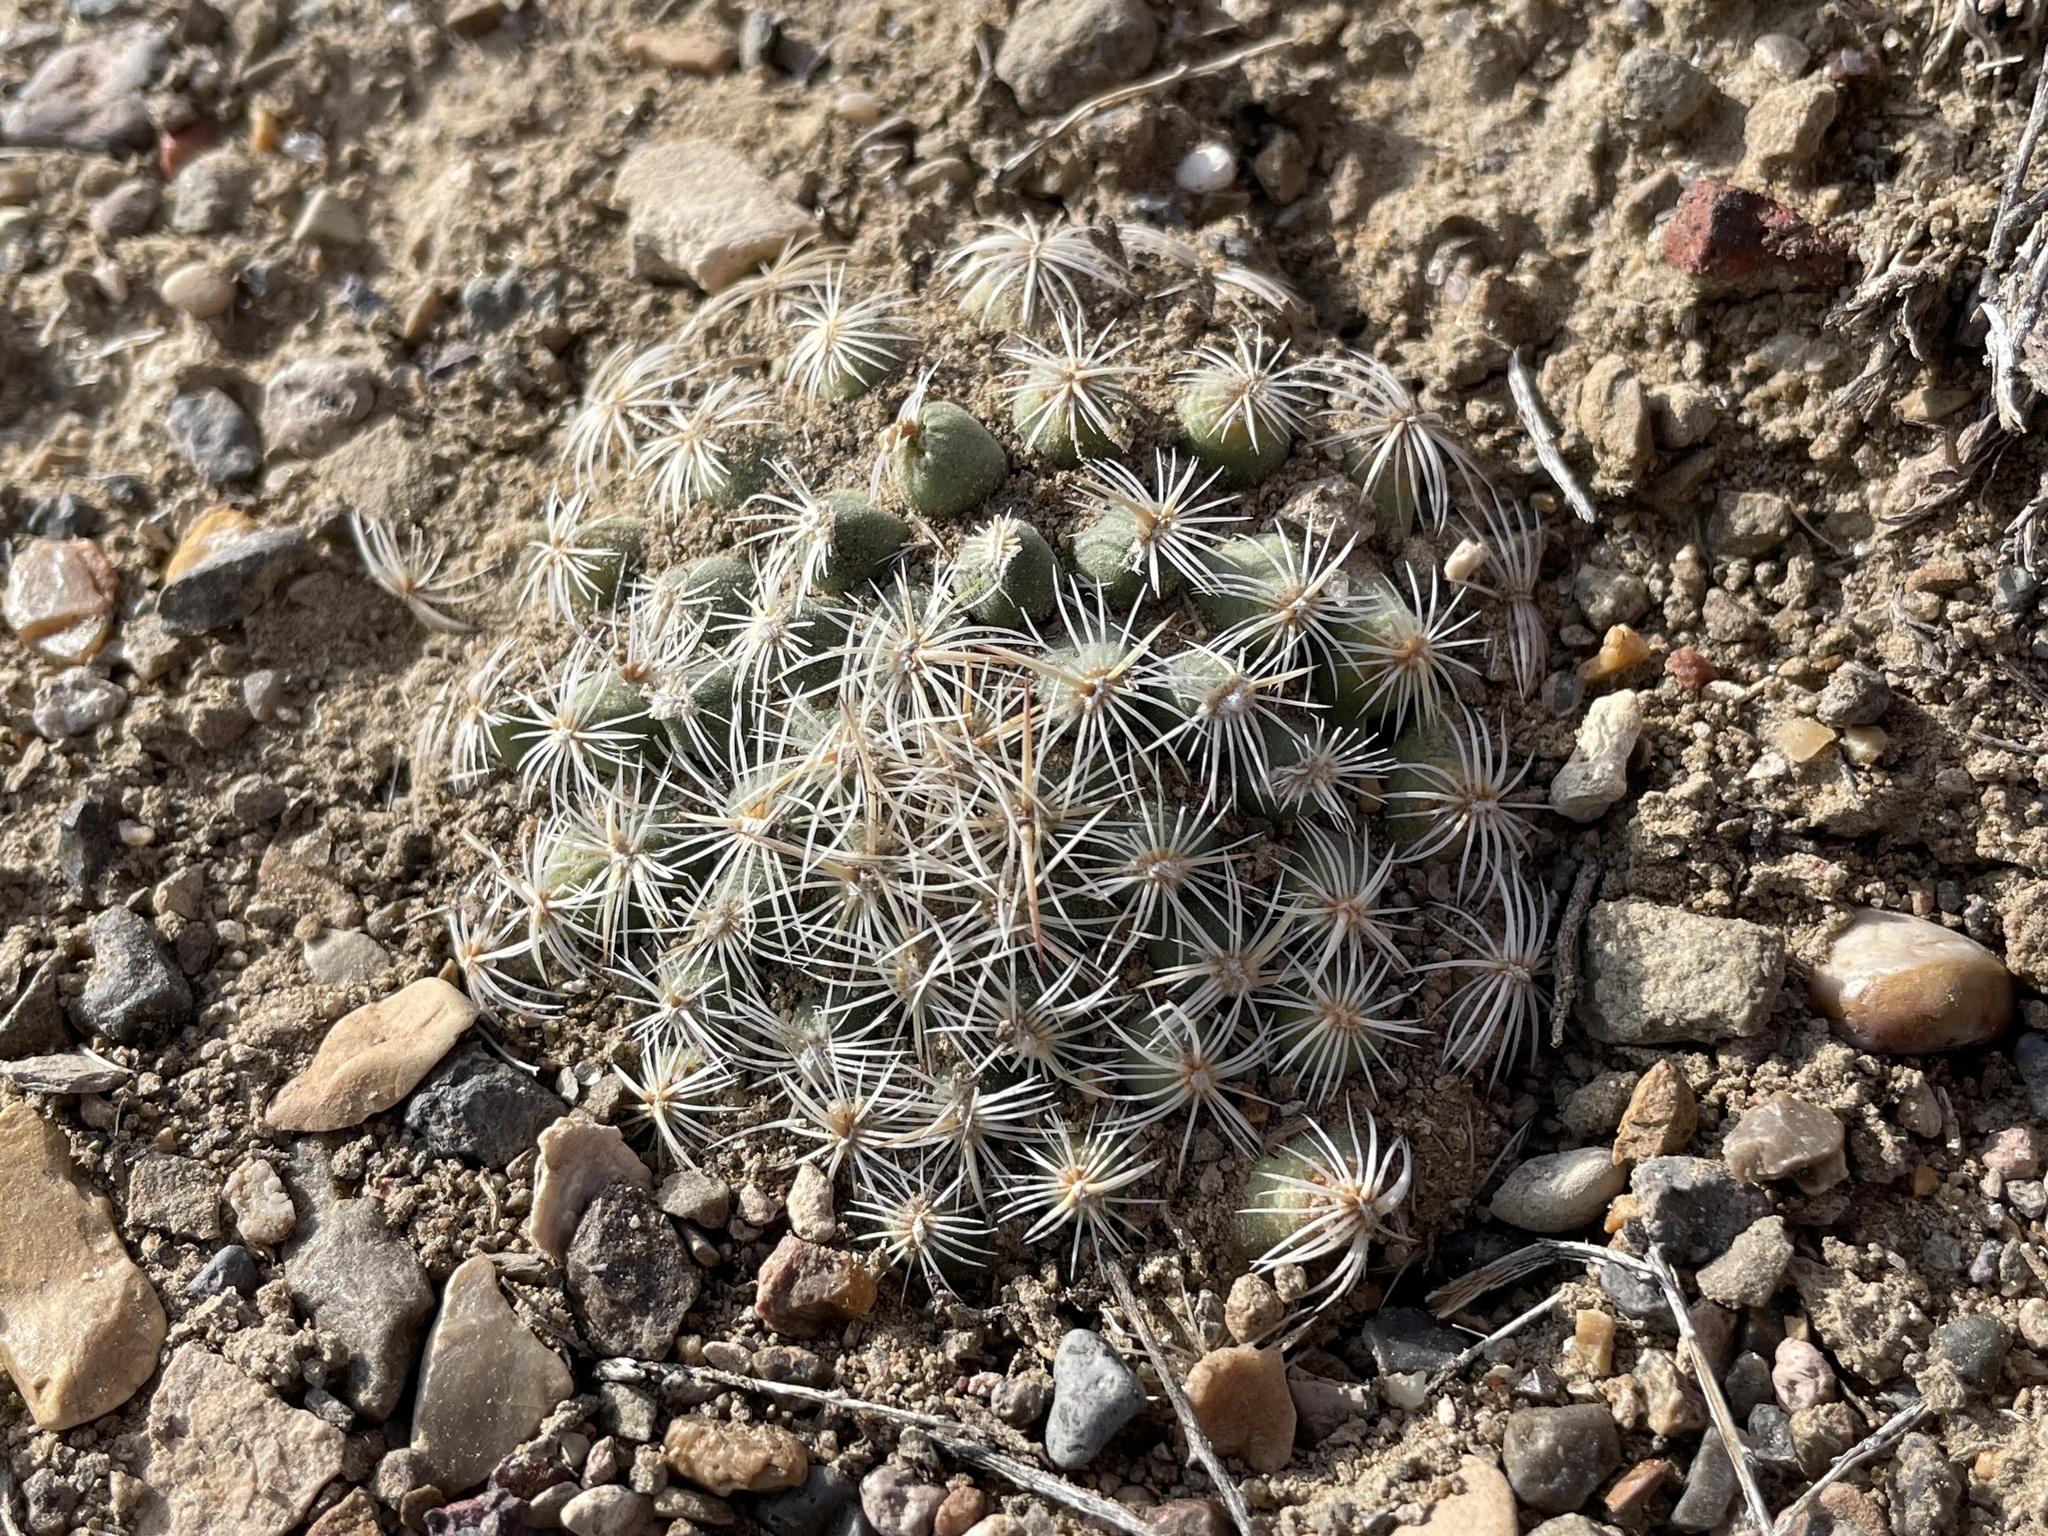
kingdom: Plantae
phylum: Tracheophyta
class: Magnoliopsida
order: Caryophyllales
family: Cactaceae
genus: Pediocactus
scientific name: Pediocactus simpsonii
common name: Simpson's hedgehog cactus
